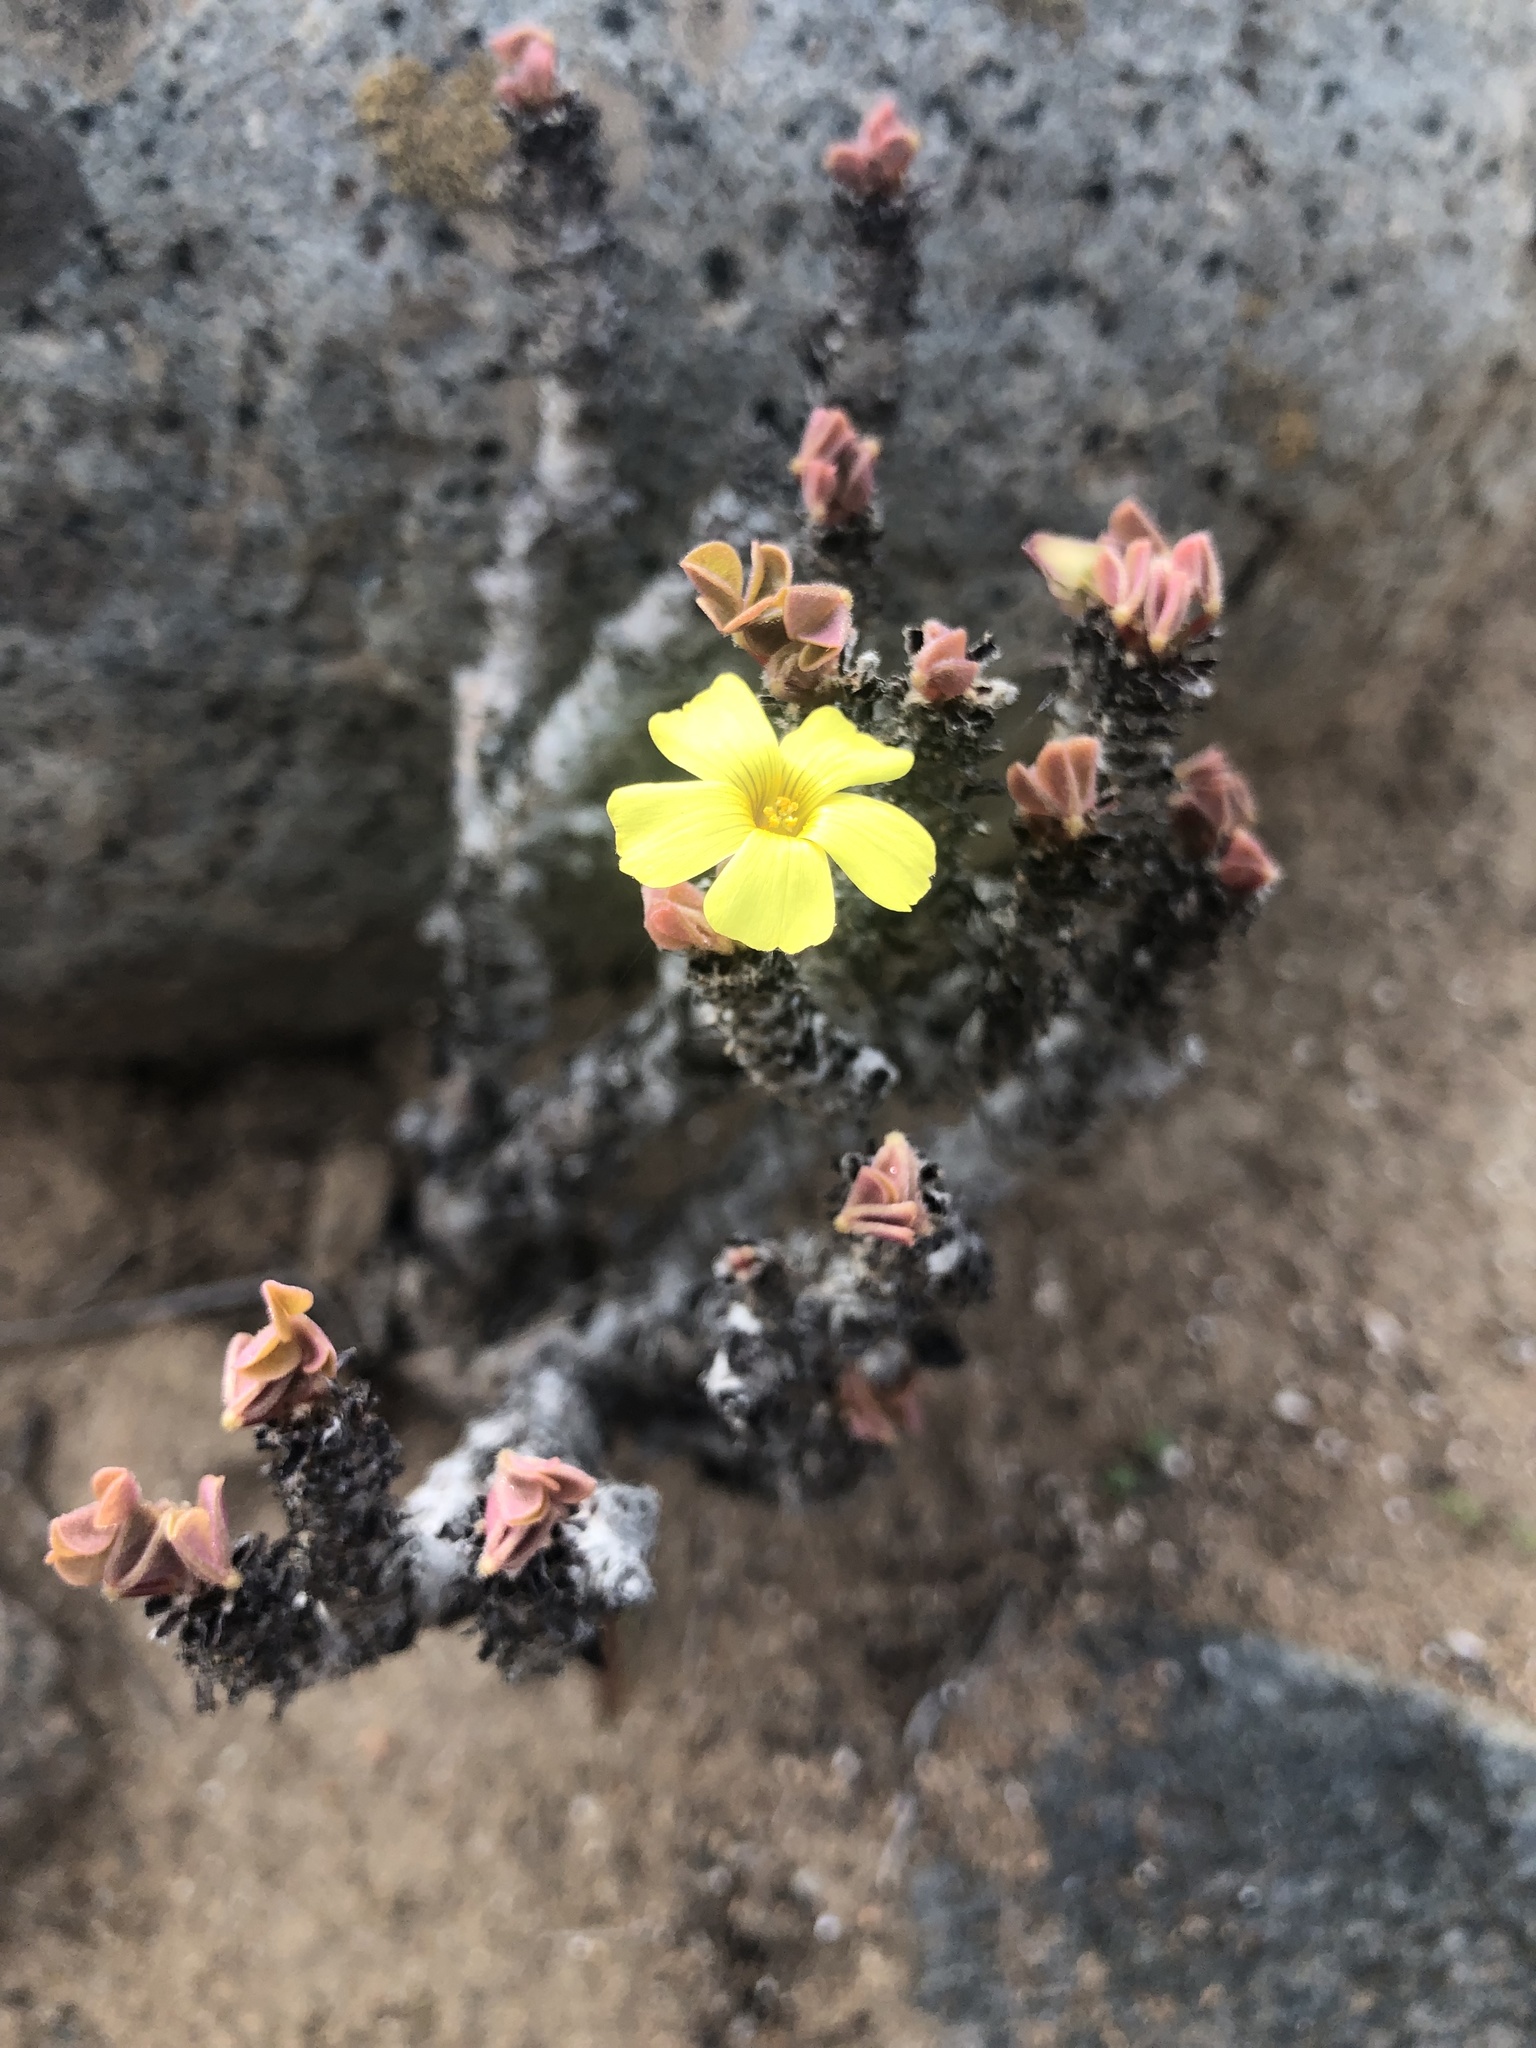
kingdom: Plantae
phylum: Tracheophyta
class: Magnoliopsida
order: Oxalidales
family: Oxalidaceae
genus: Oxalis
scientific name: Oxalis gigantea
